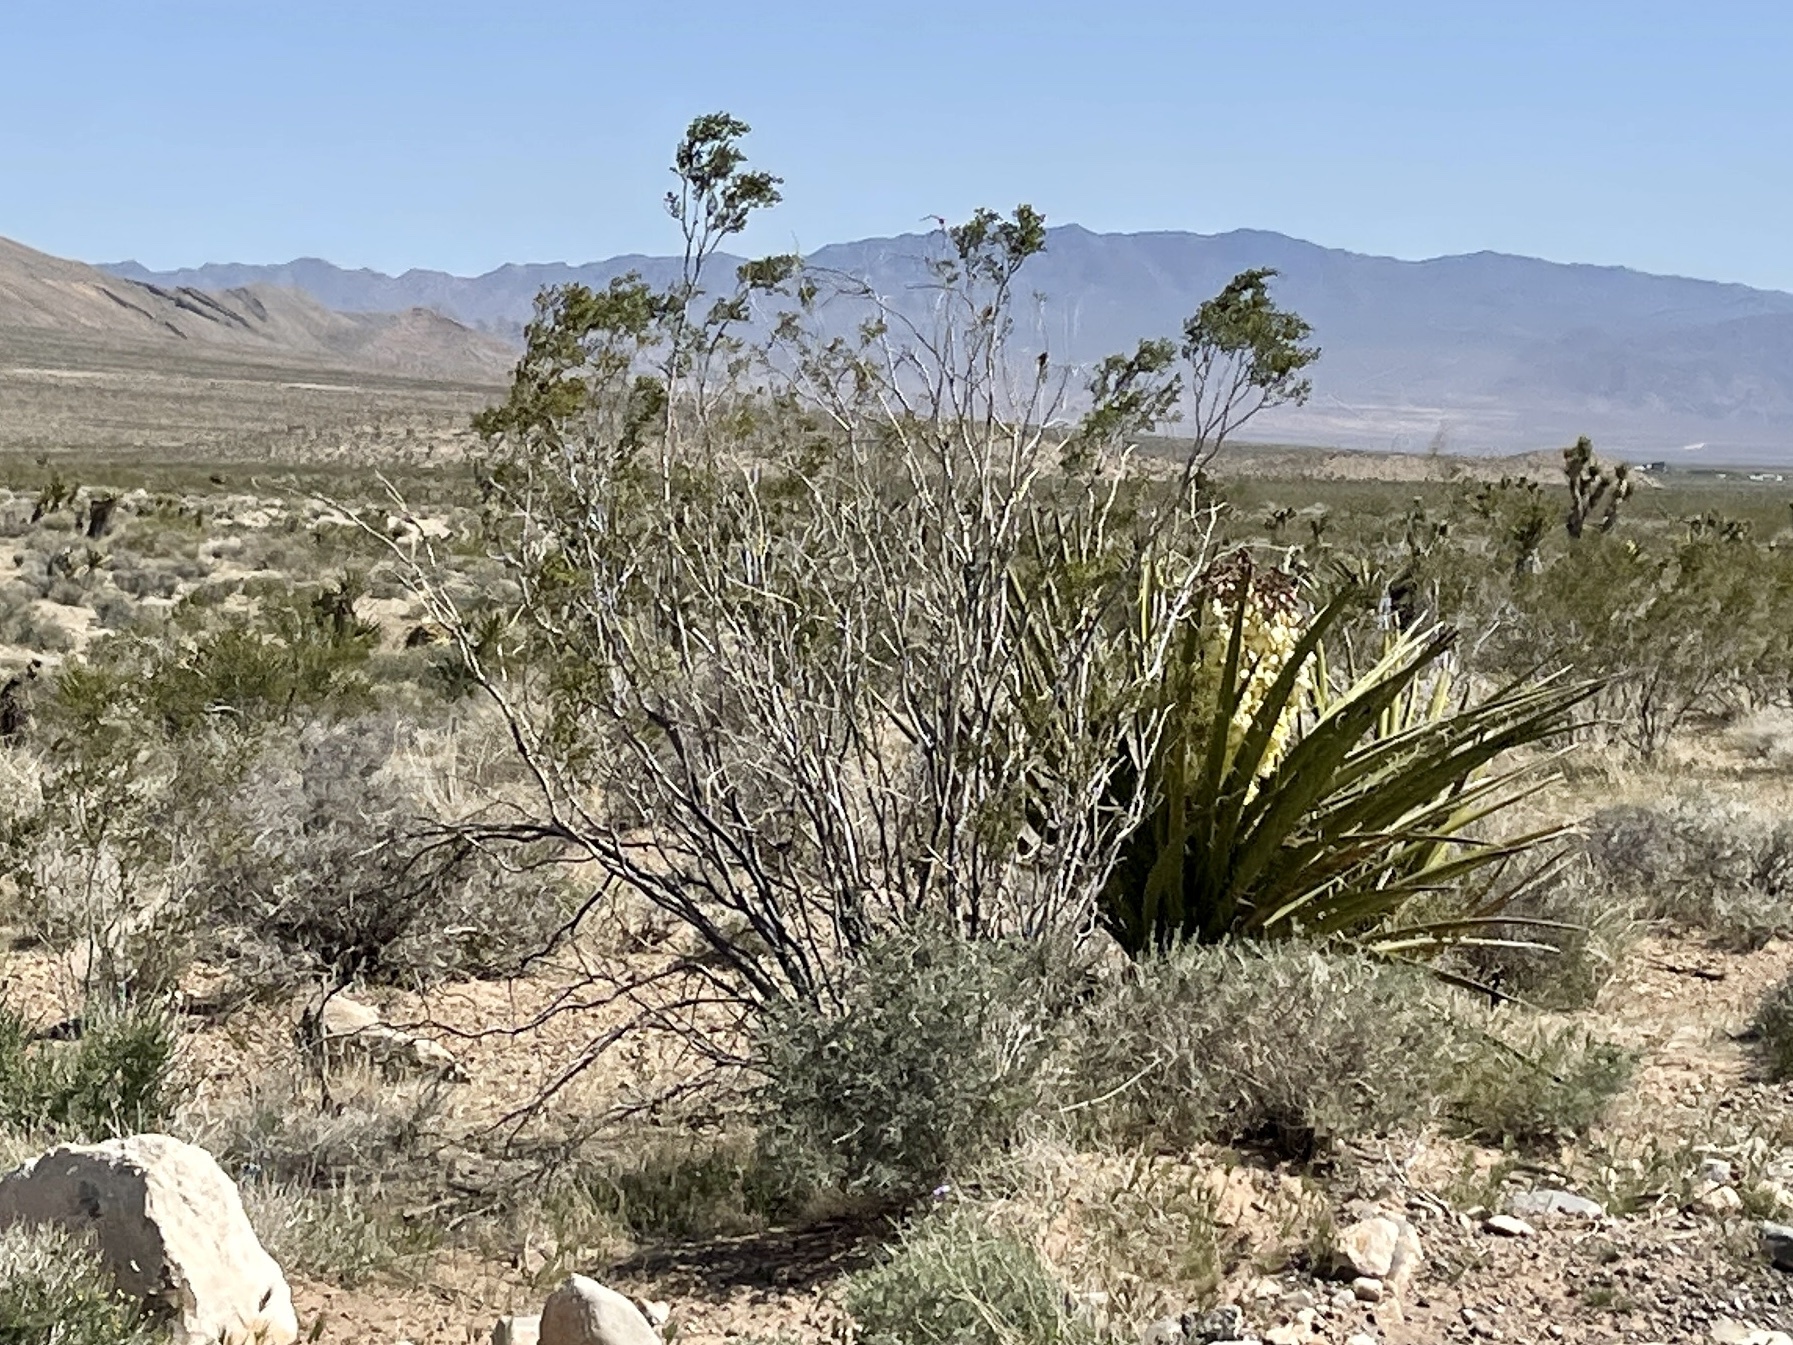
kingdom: Plantae
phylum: Tracheophyta
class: Magnoliopsida
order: Zygophyllales
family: Zygophyllaceae
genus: Larrea
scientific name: Larrea tridentata
